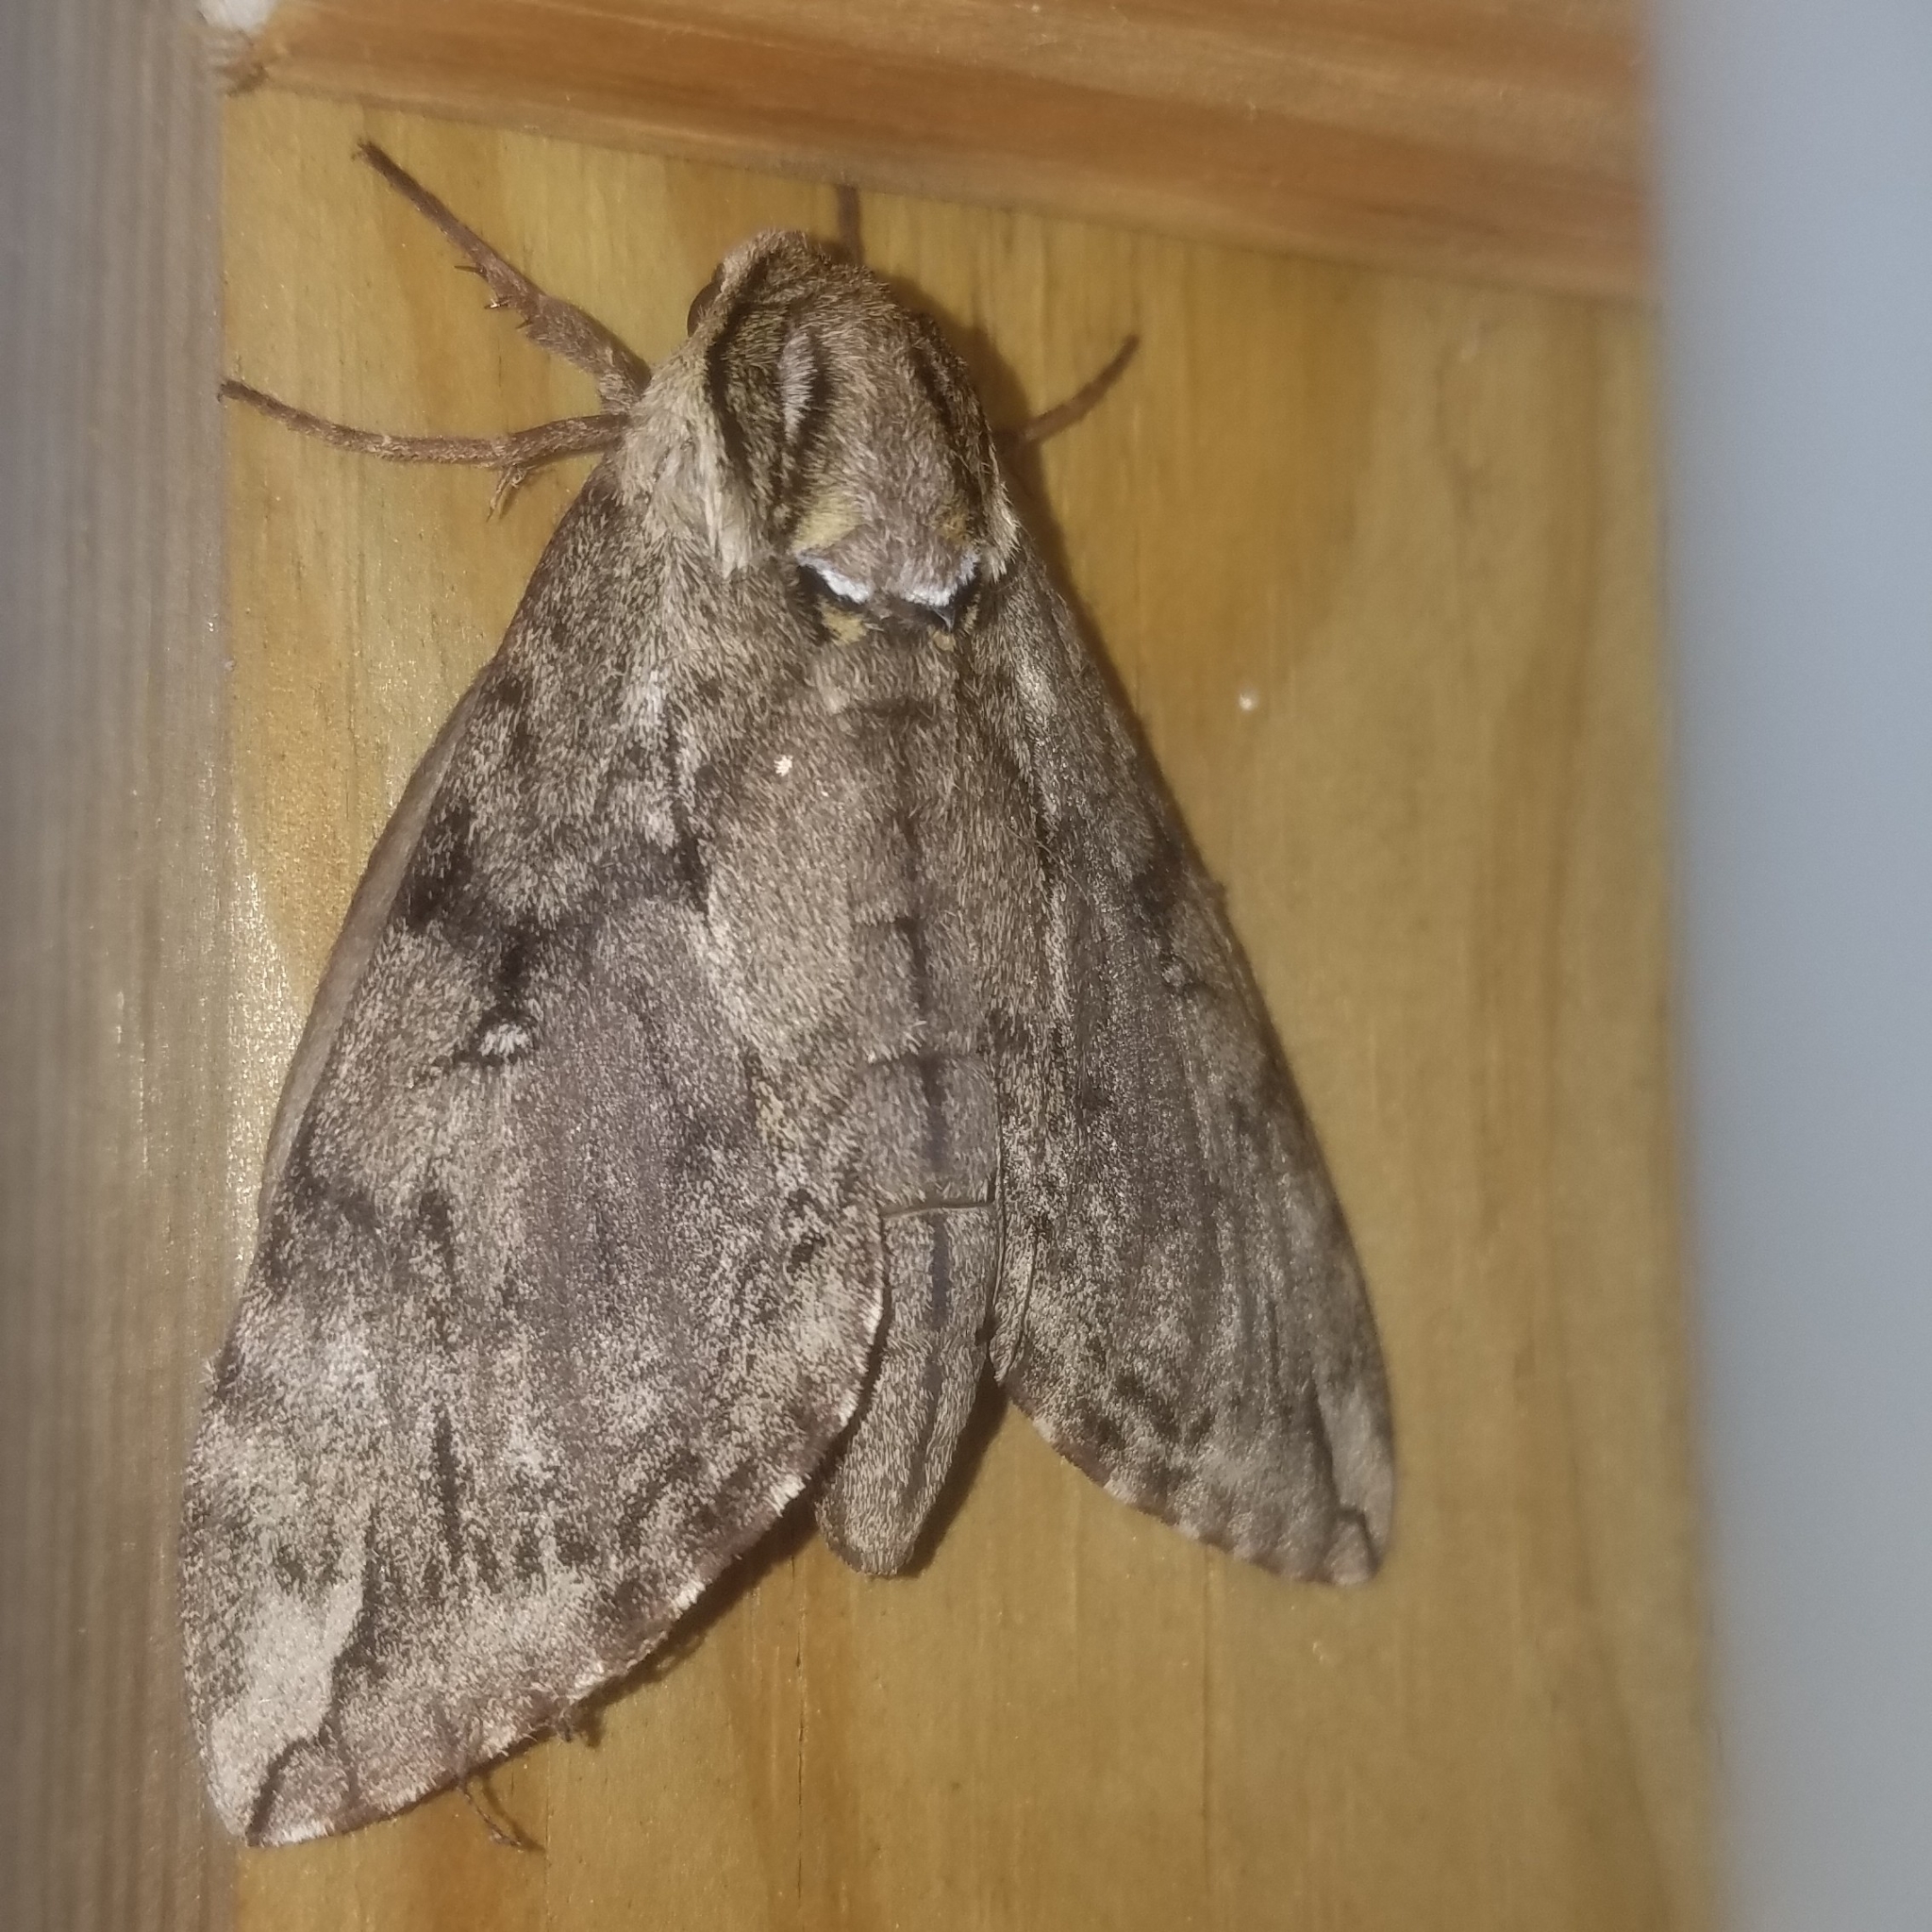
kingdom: Animalia
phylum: Arthropoda
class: Insecta
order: Lepidoptera
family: Sphingidae
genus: Ceratomia
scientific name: Ceratomia catalpae
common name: Catalpa hornworm
